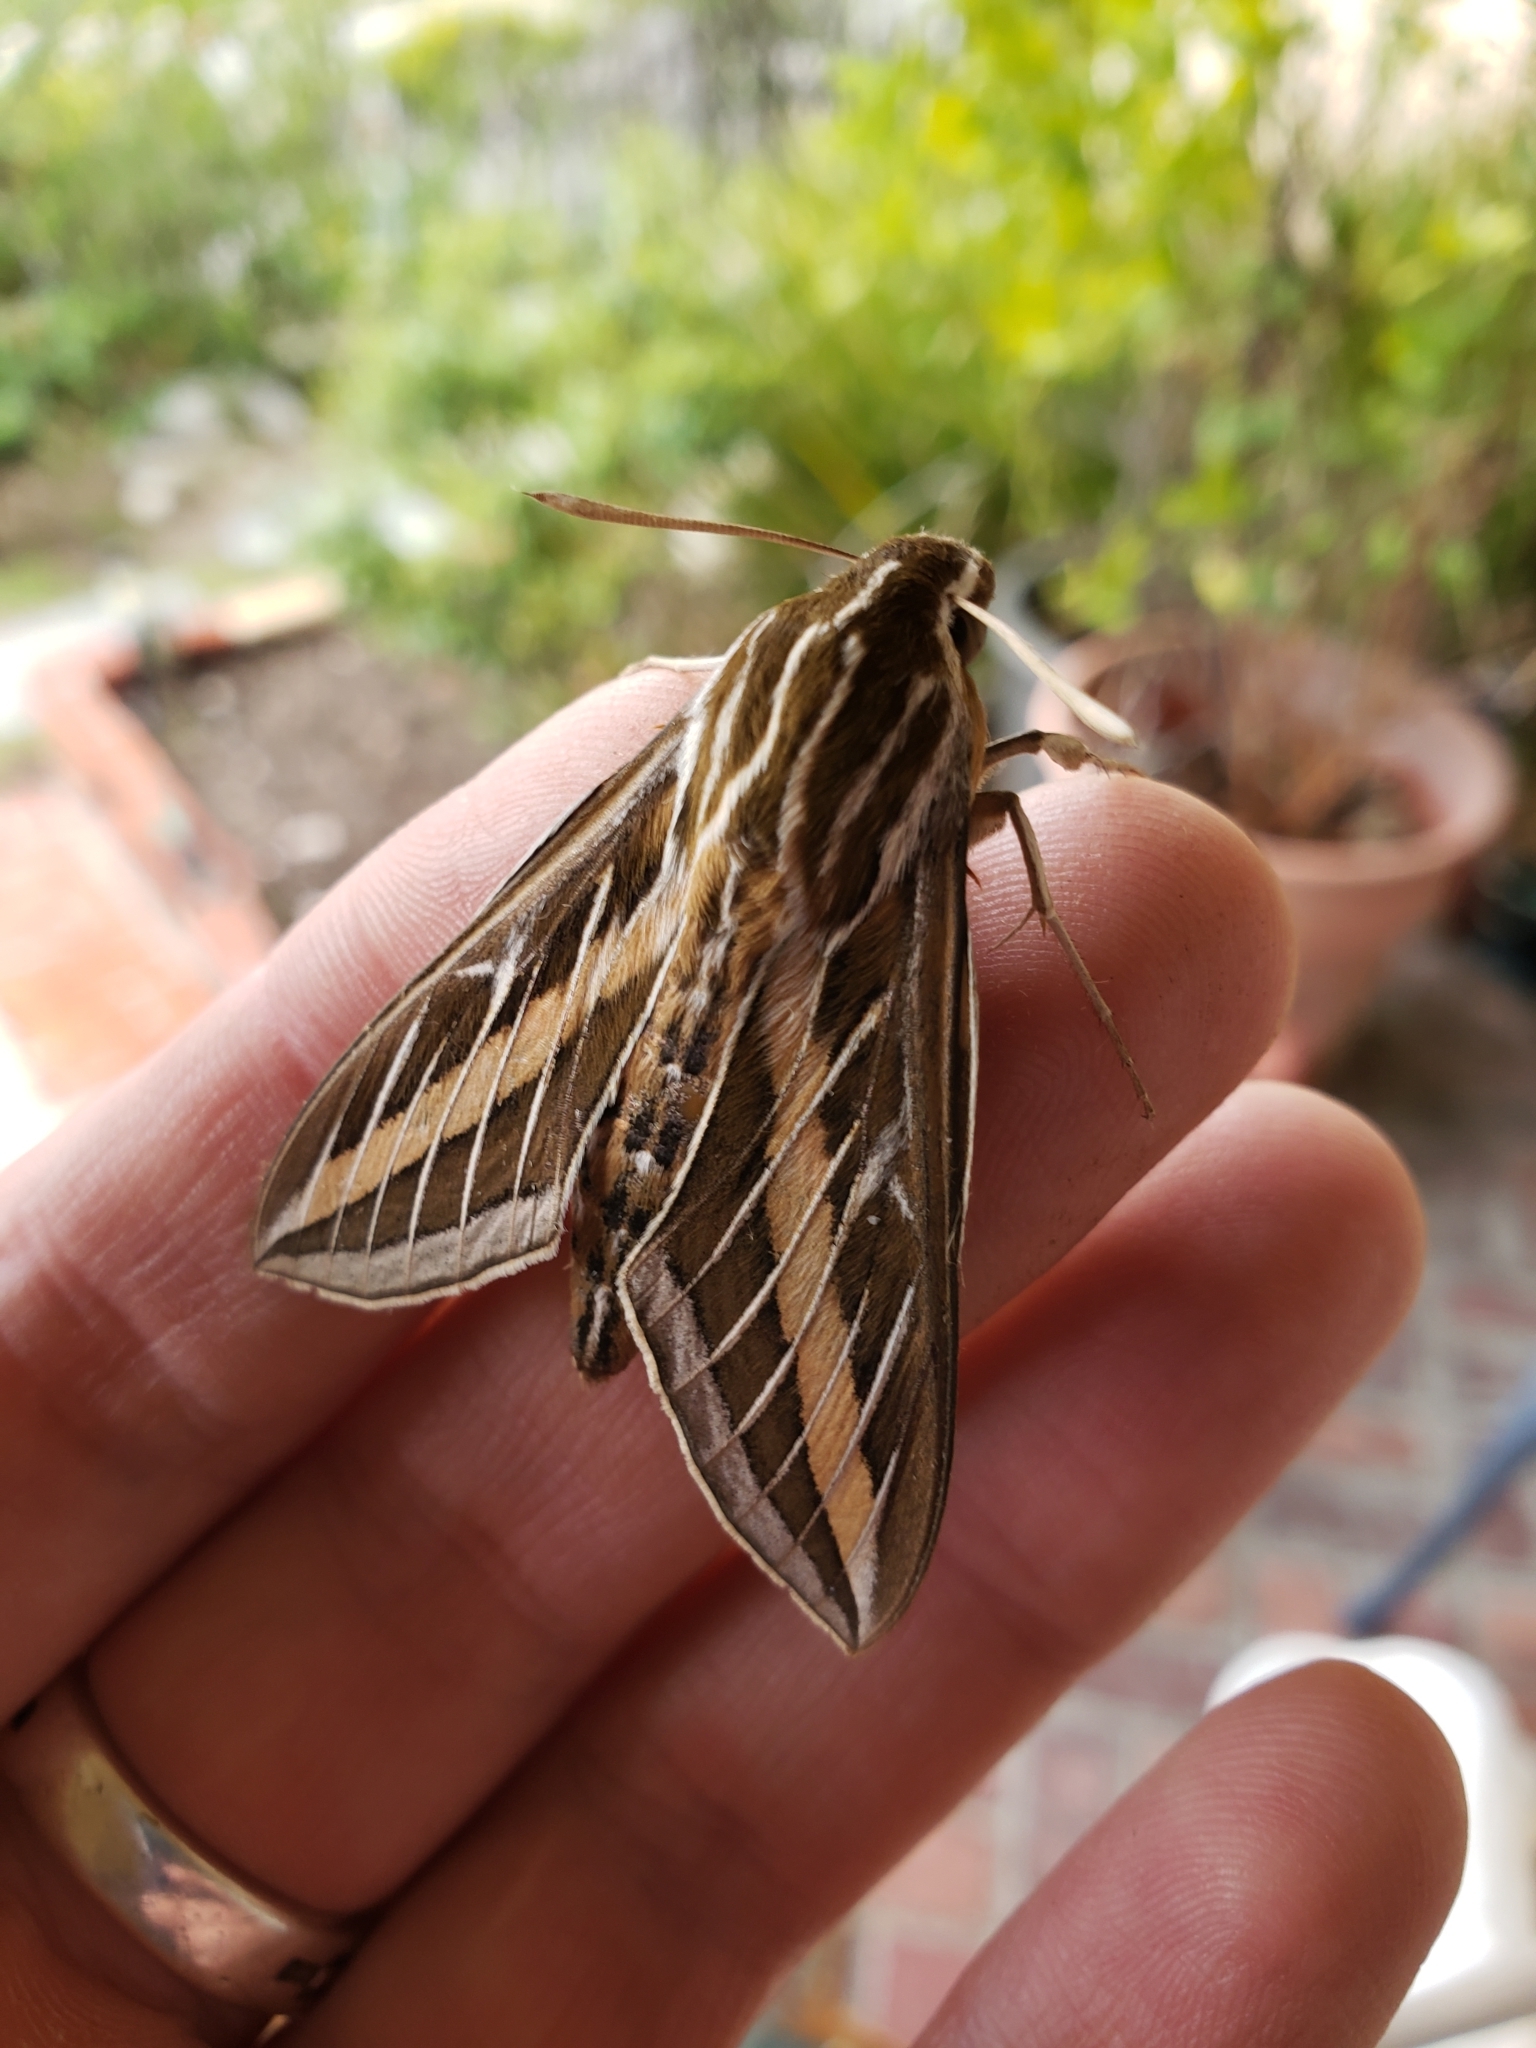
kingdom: Animalia
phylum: Arthropoda
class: Insecta
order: Lepidoptera
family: Sphingidae
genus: Hyles
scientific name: Hyles lineata
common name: White-lined sphinx
